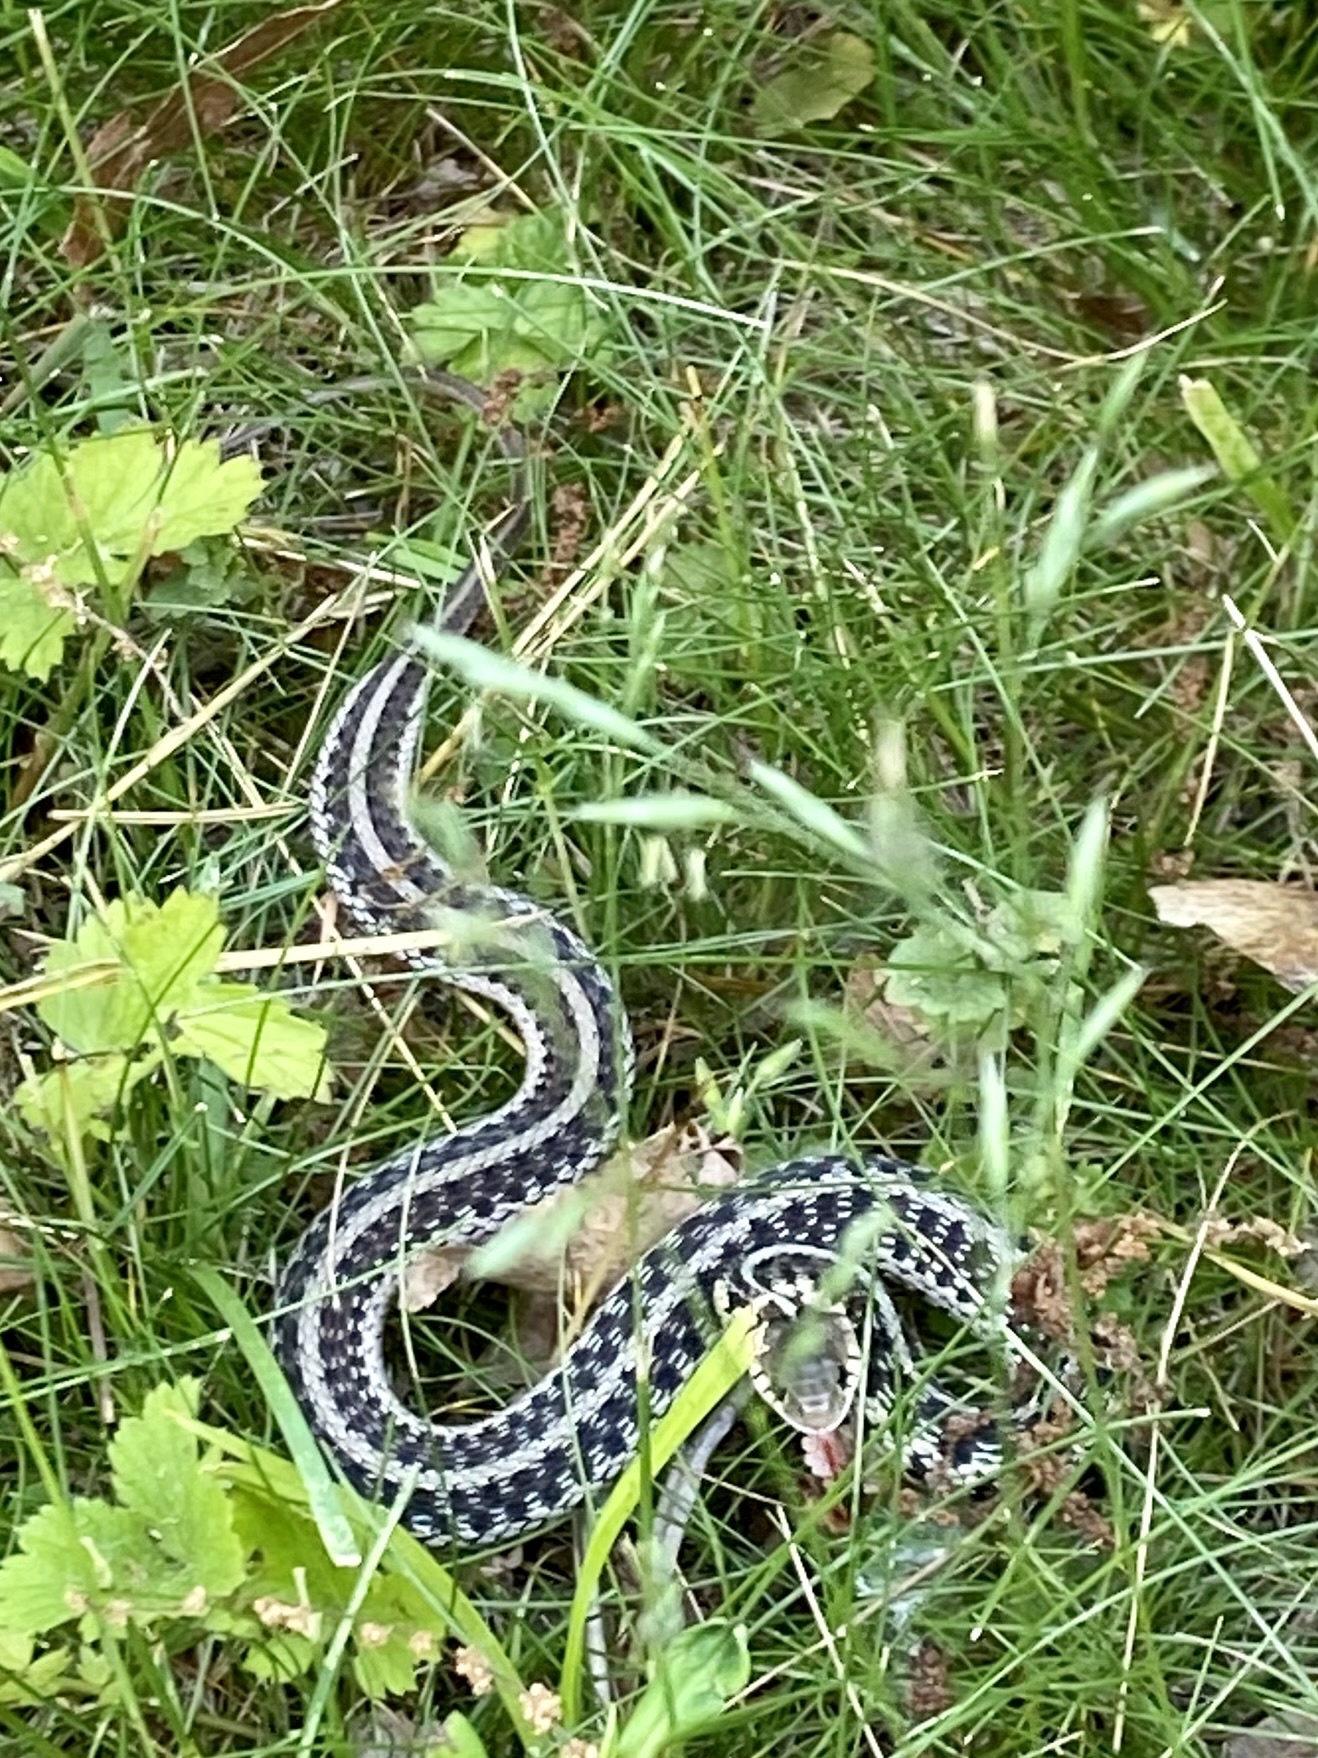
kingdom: Animalia
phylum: Chordata
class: Squamata
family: Colubridae
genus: Thamnophis
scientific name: Thamnophis sirtalis
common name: Common garter snake
